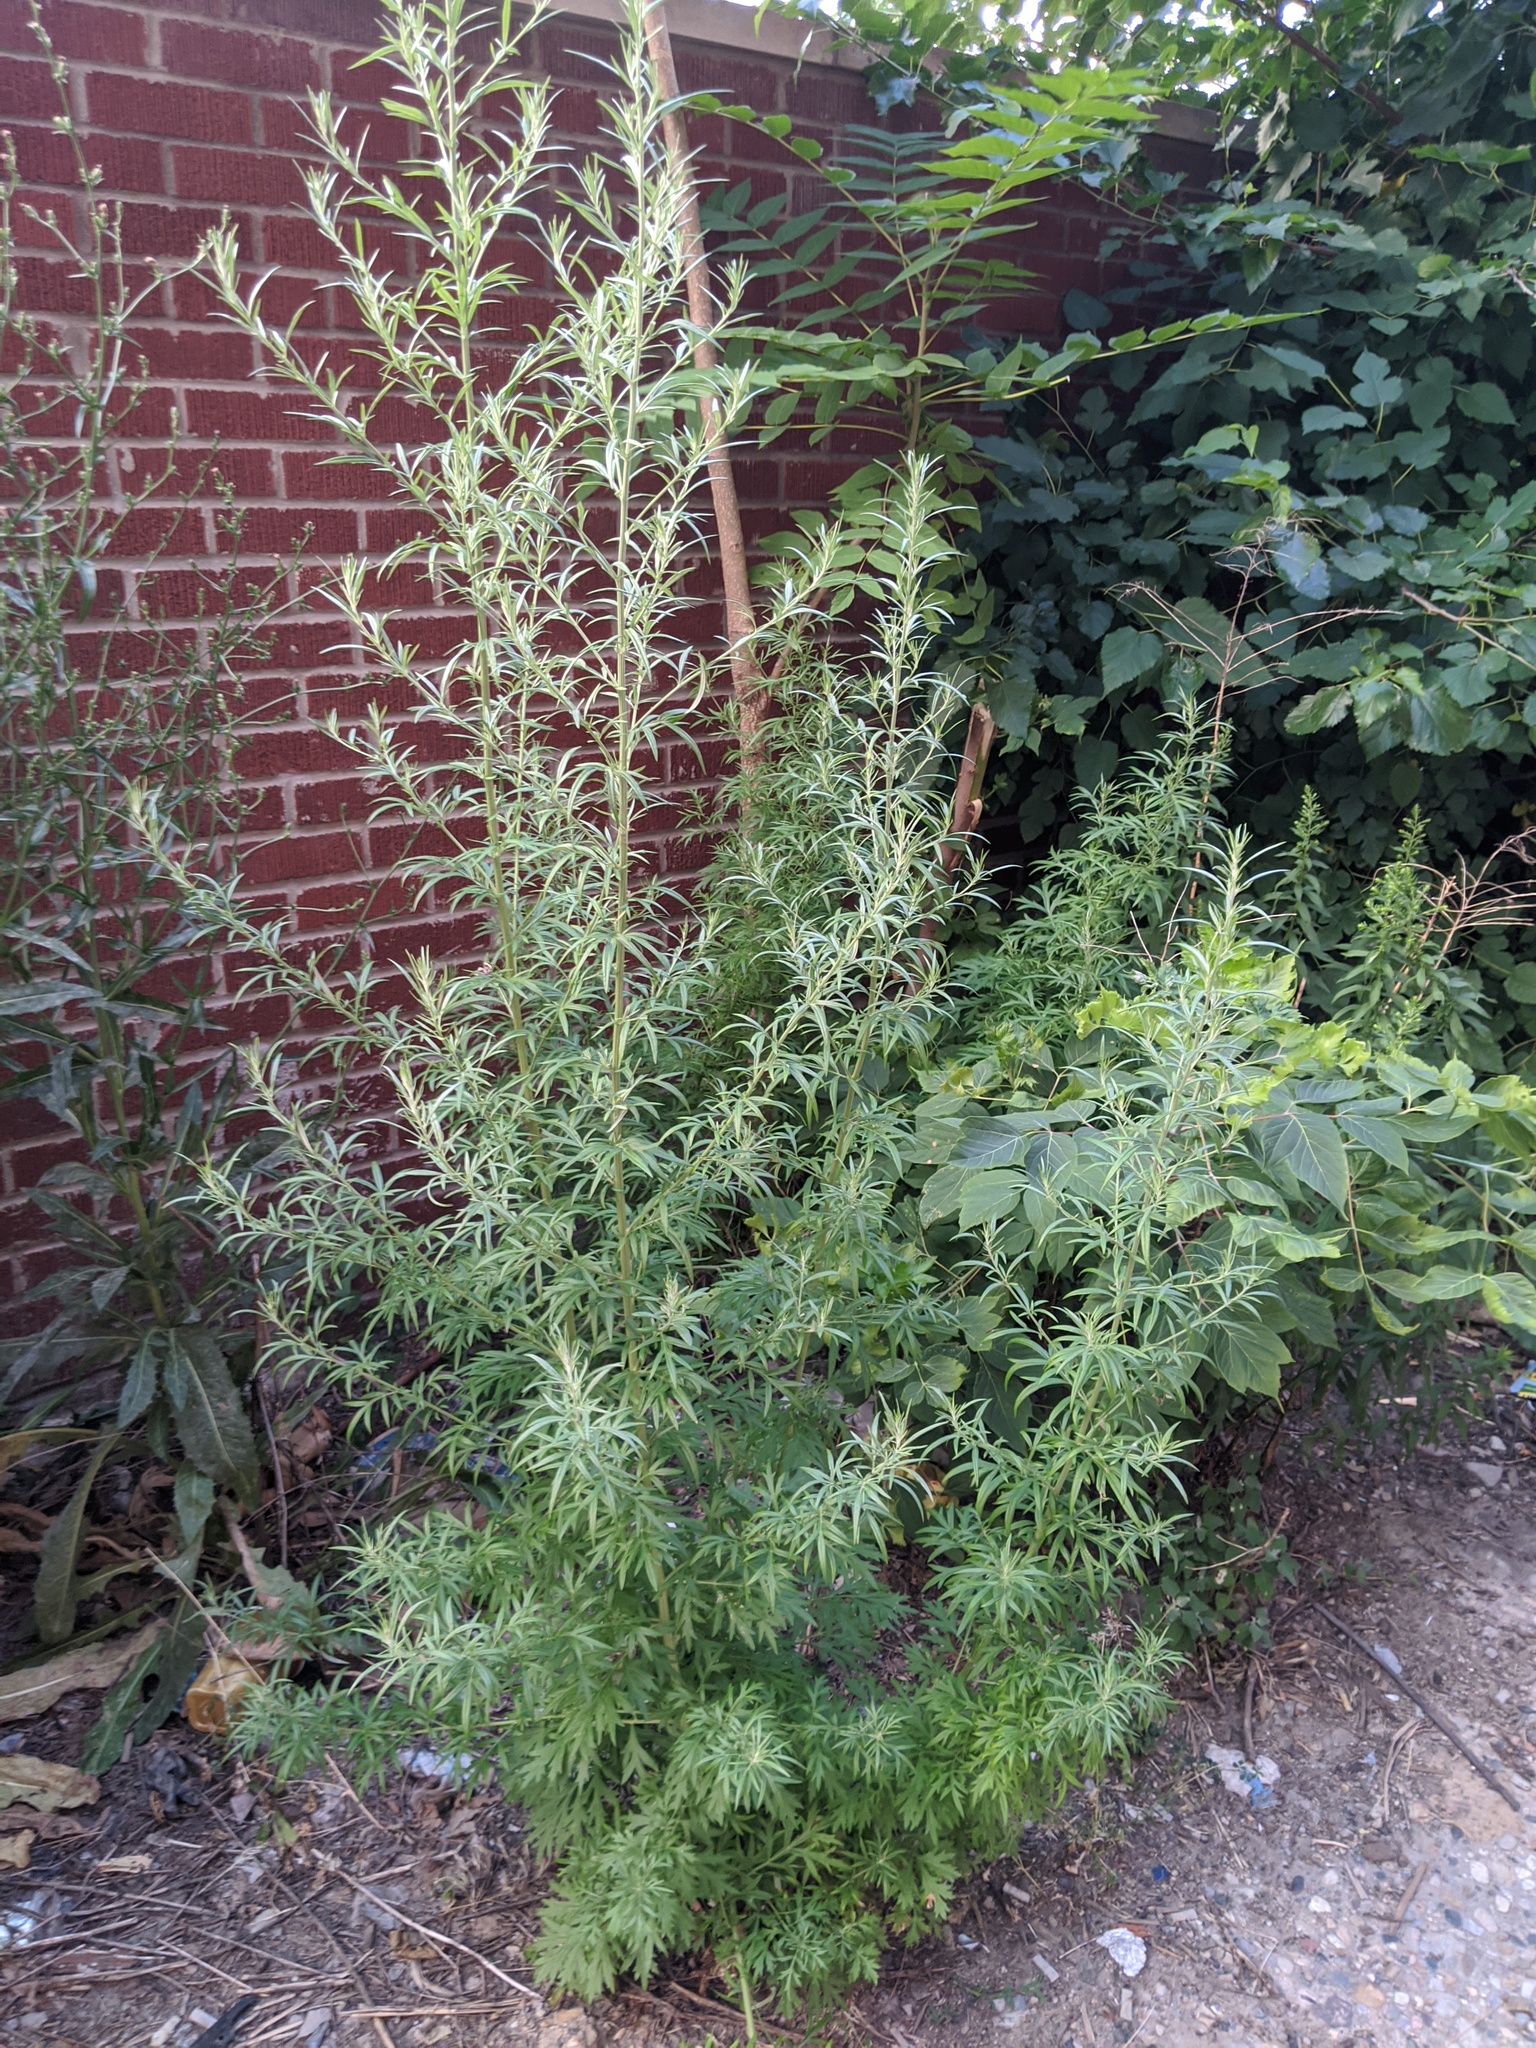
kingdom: Plantae
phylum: Tracheophyta
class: Magnoliopsida
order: Asterales
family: Asteraceae
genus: Artemisia
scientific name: Artemisia vulgaris
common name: Mugwort
